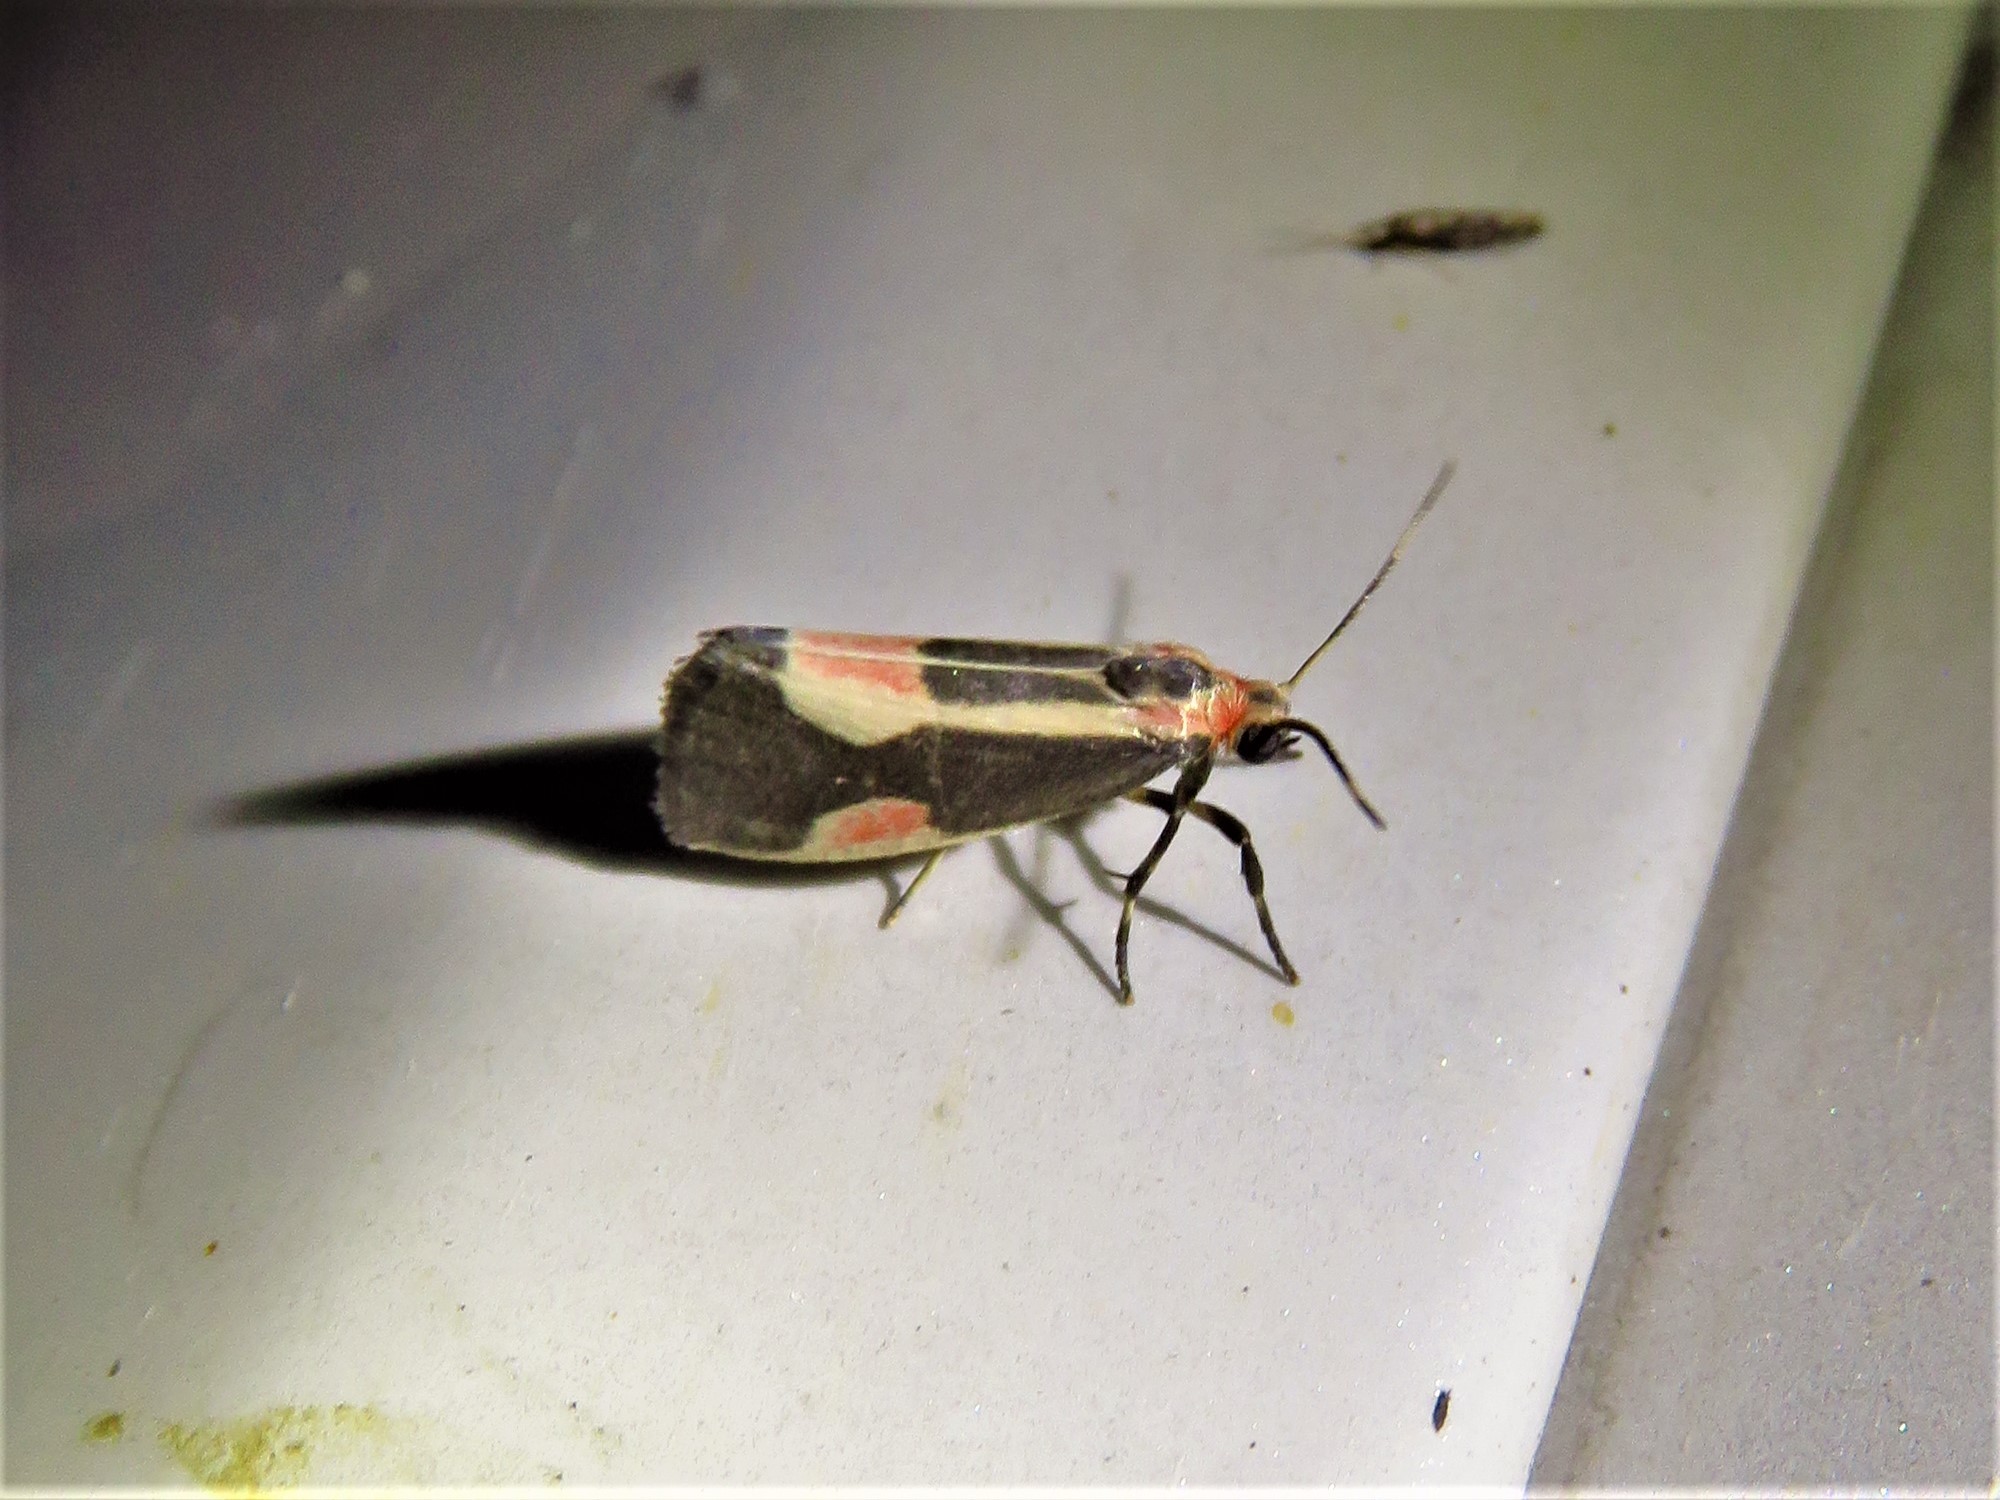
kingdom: Animalia
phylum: Arthropoda
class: Insecta
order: Lepidoptera
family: Erebidae
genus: Cisthene
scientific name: Cisthene packardii
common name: Packard's lichen moth
